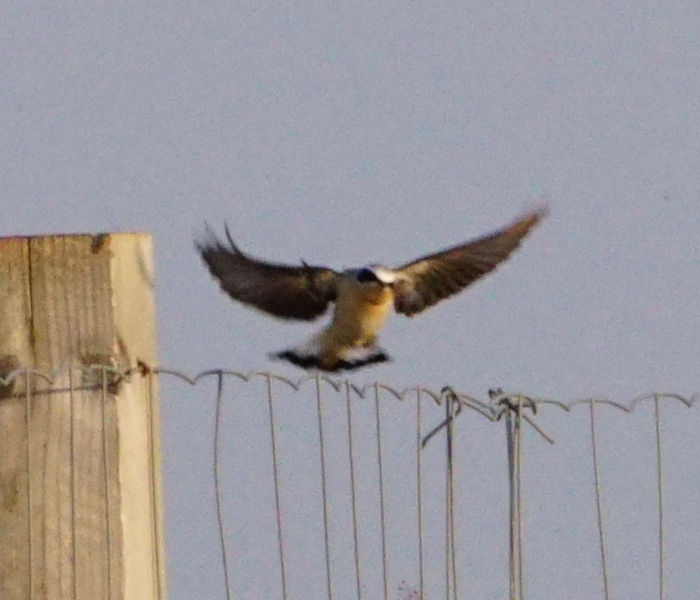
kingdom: Animalia
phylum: Chordata
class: Aves
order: Passeriformes
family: Muscicapidae
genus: Oenanthe
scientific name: Oenanthe oenanthe
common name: Northern wheatear
